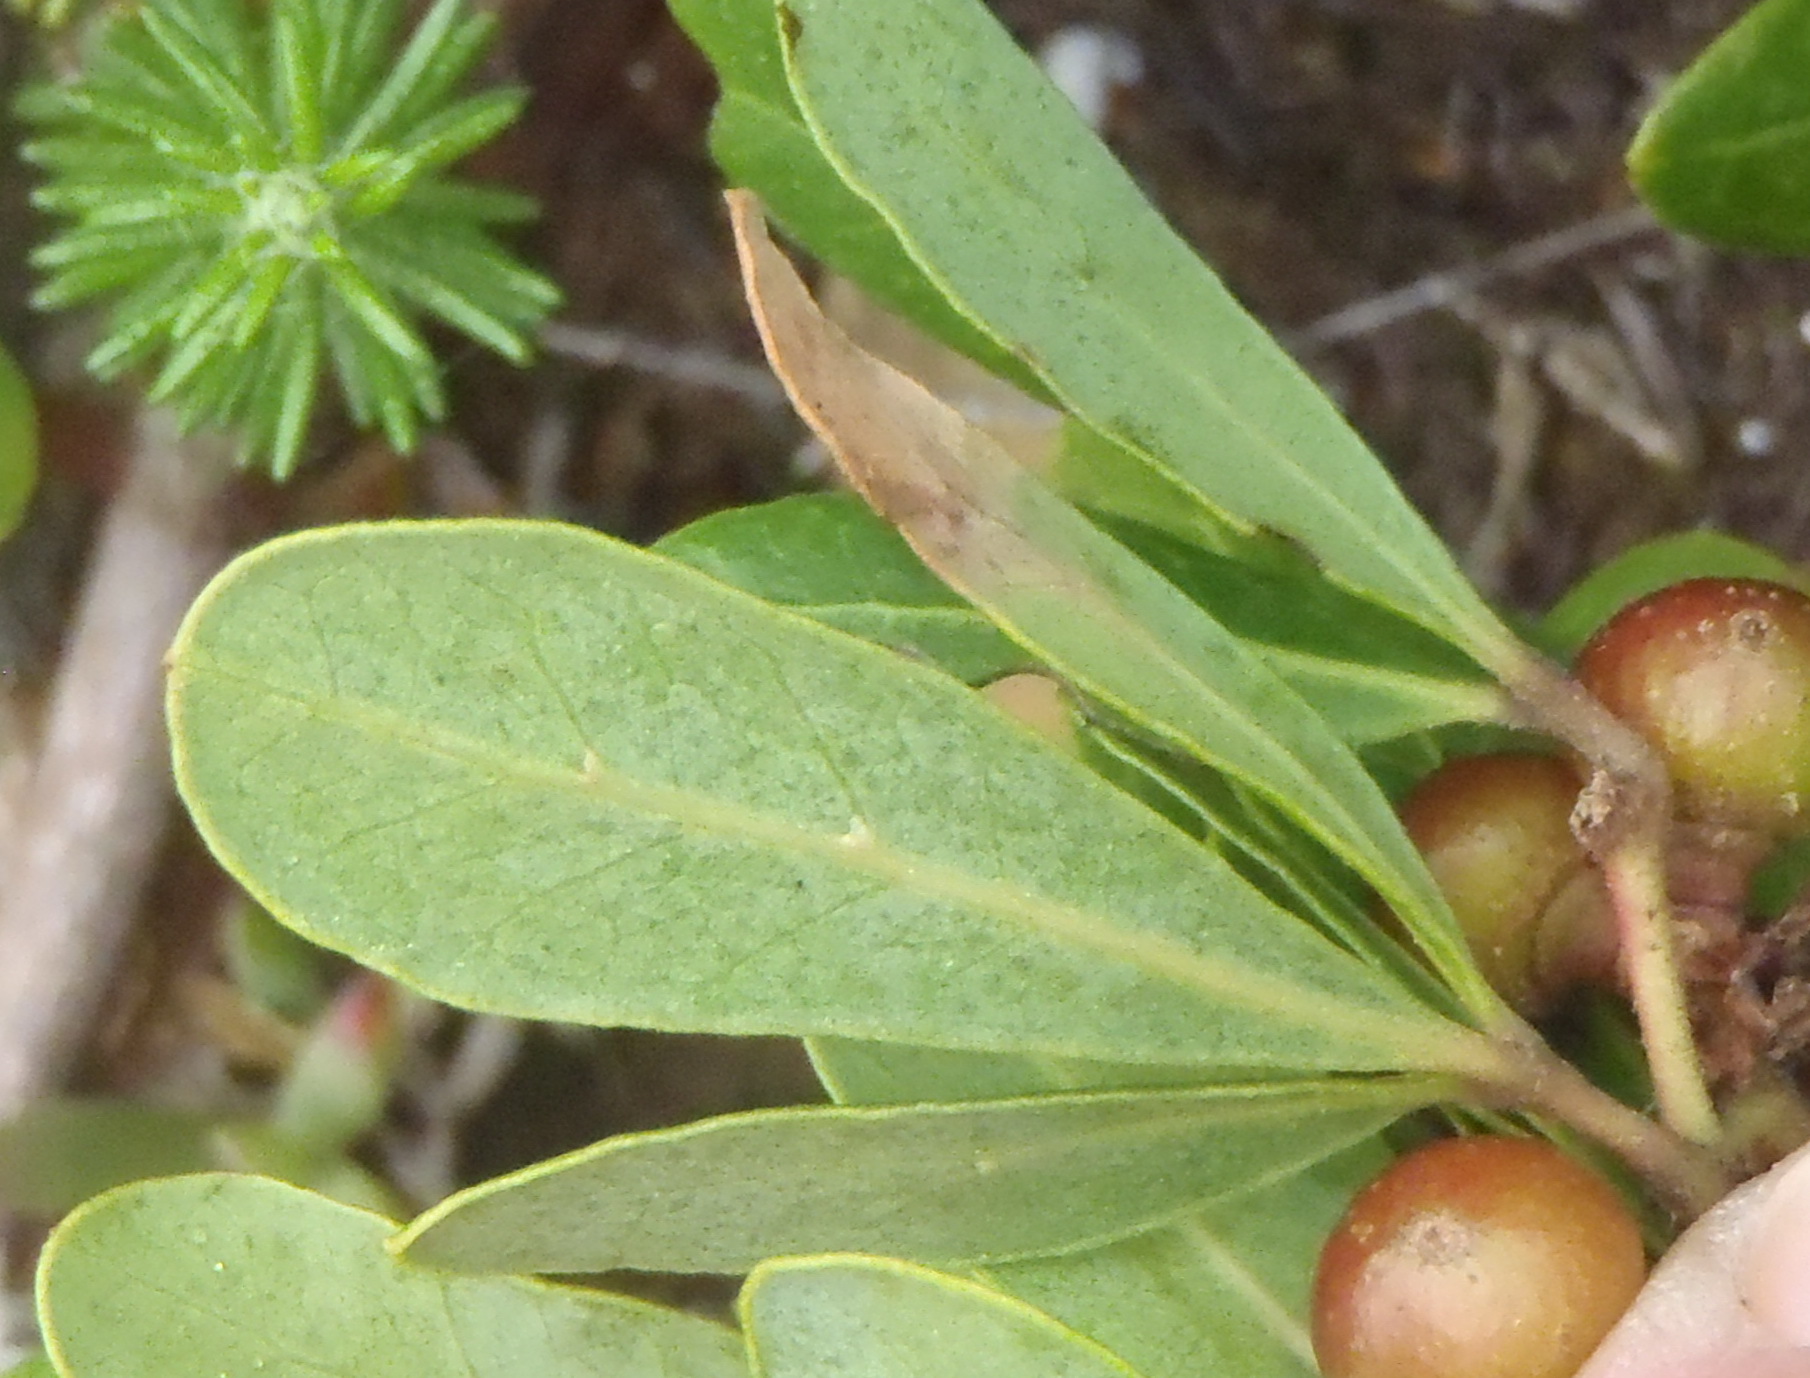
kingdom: Plantae
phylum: Tracheophyta
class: Magnoliopsida
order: Vitales
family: Vitaceae
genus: Rhoicissus
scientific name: Rhoicissus digitata
